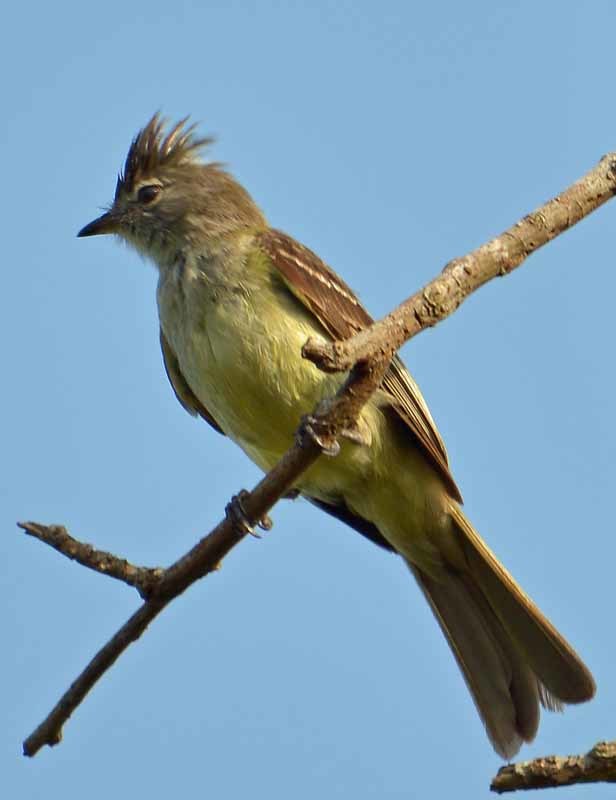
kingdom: Animalia
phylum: Chordata
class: Aves
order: Passeriformes
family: Tyrannidae
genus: Elaenia
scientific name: Elaenia flavogaster
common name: Yellow-bellied elaenia
